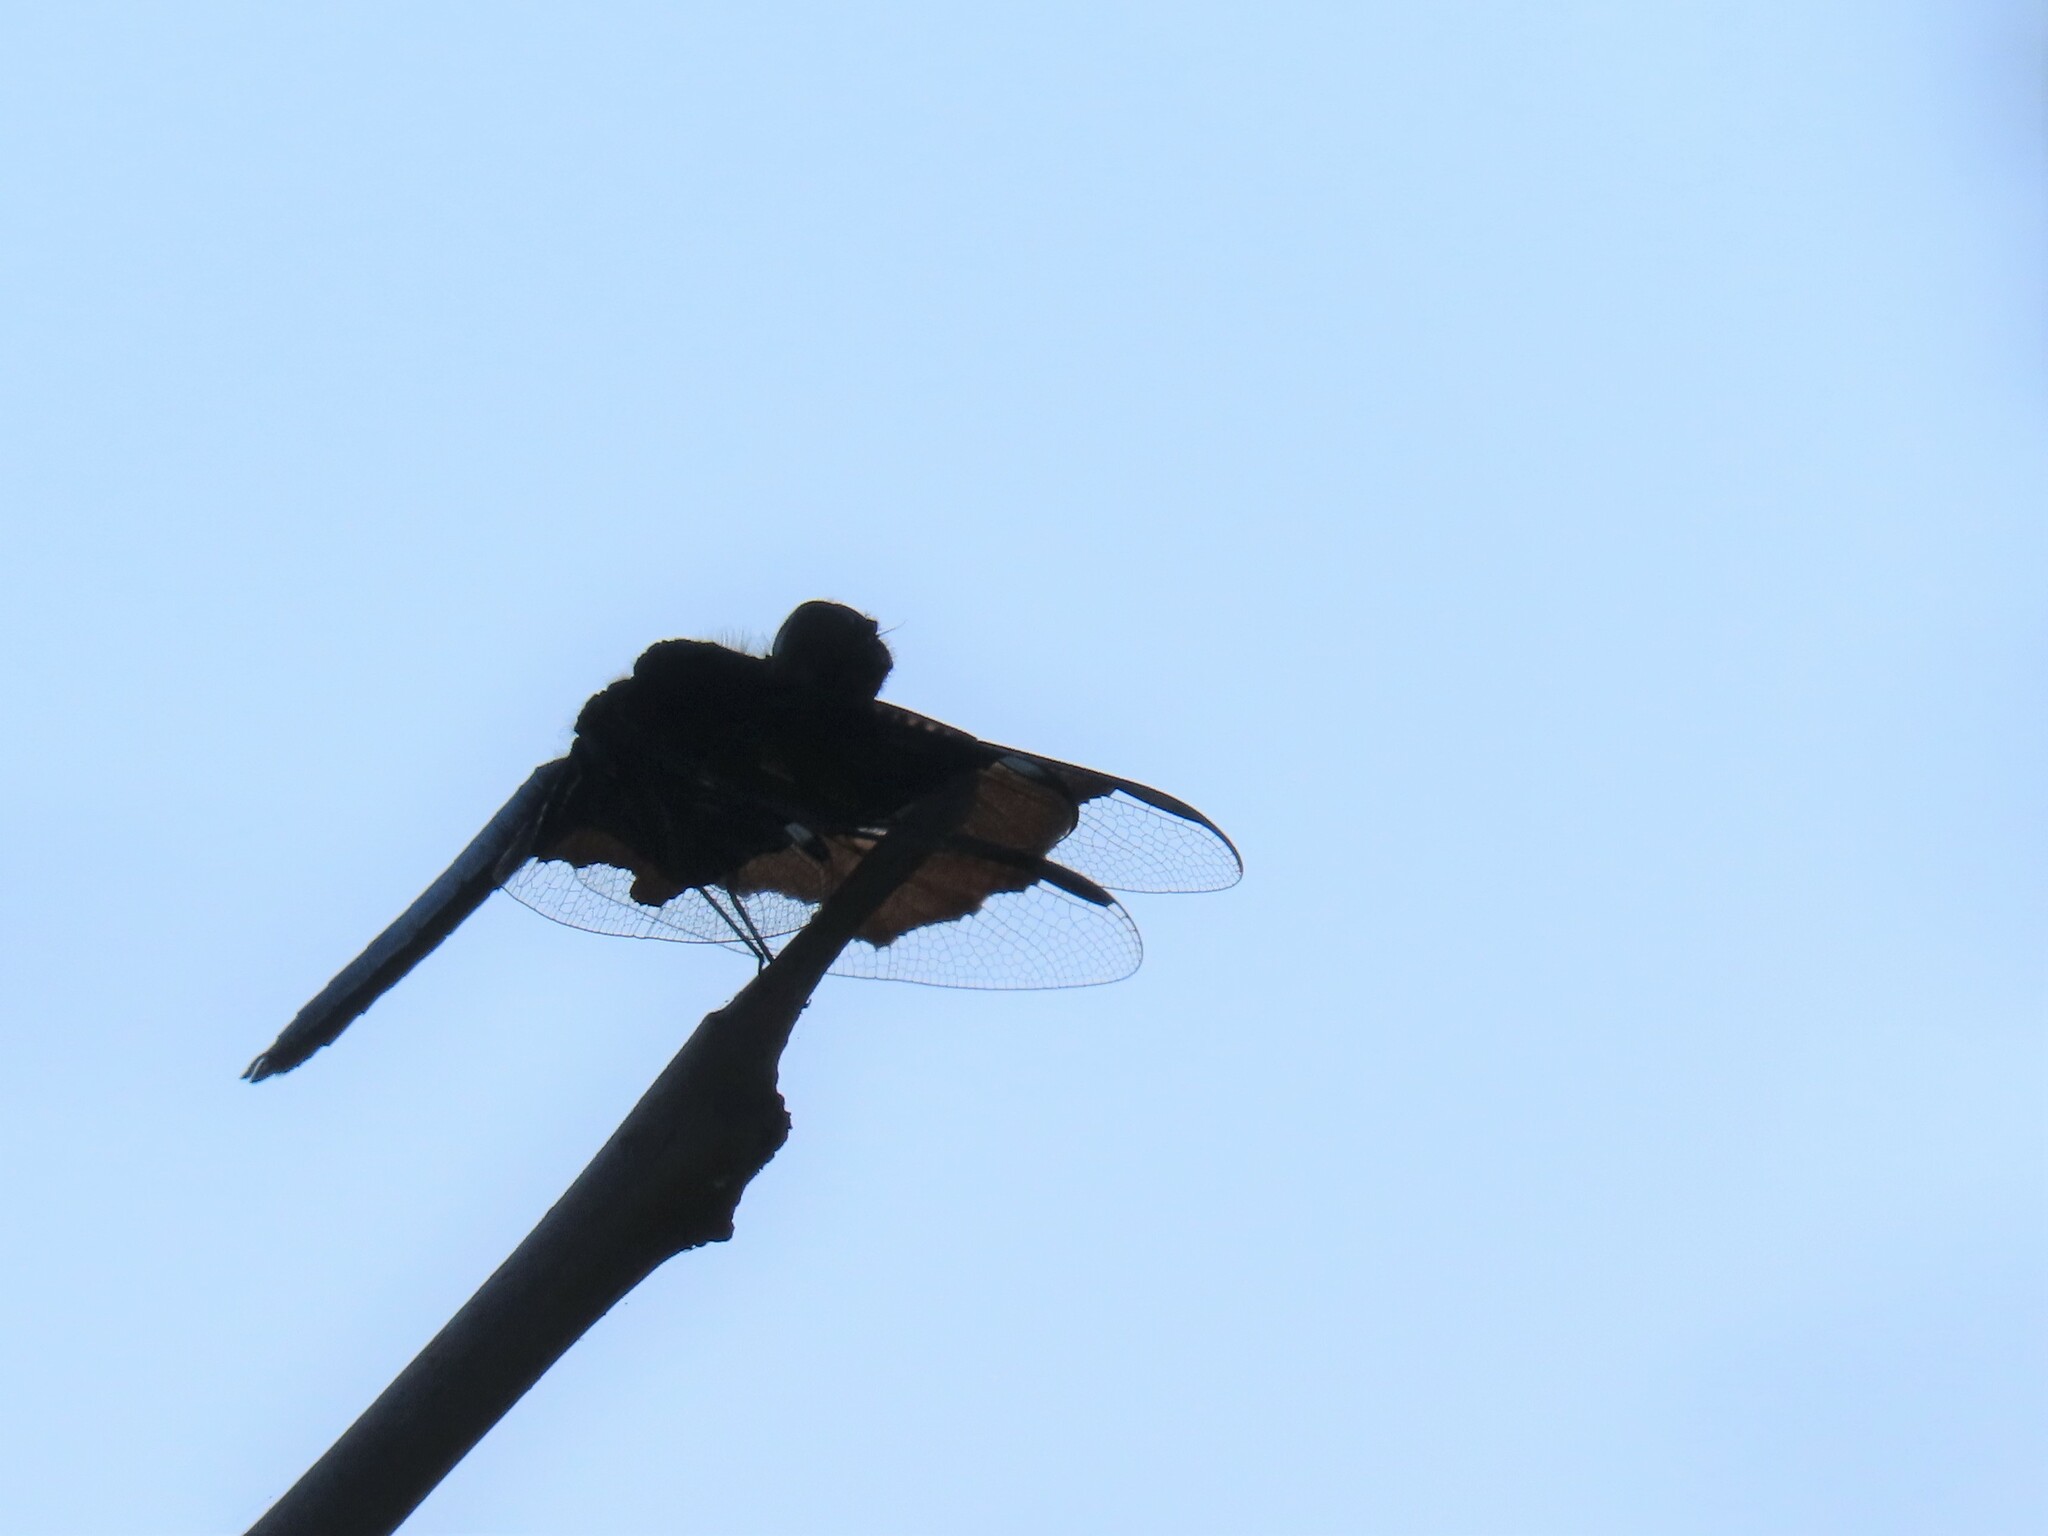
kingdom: Animalia
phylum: Arthropoda
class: Insecta
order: Odonata
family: Libellulidae
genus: Palpopleura
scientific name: Palpopleura lucia
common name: Lucia widow
